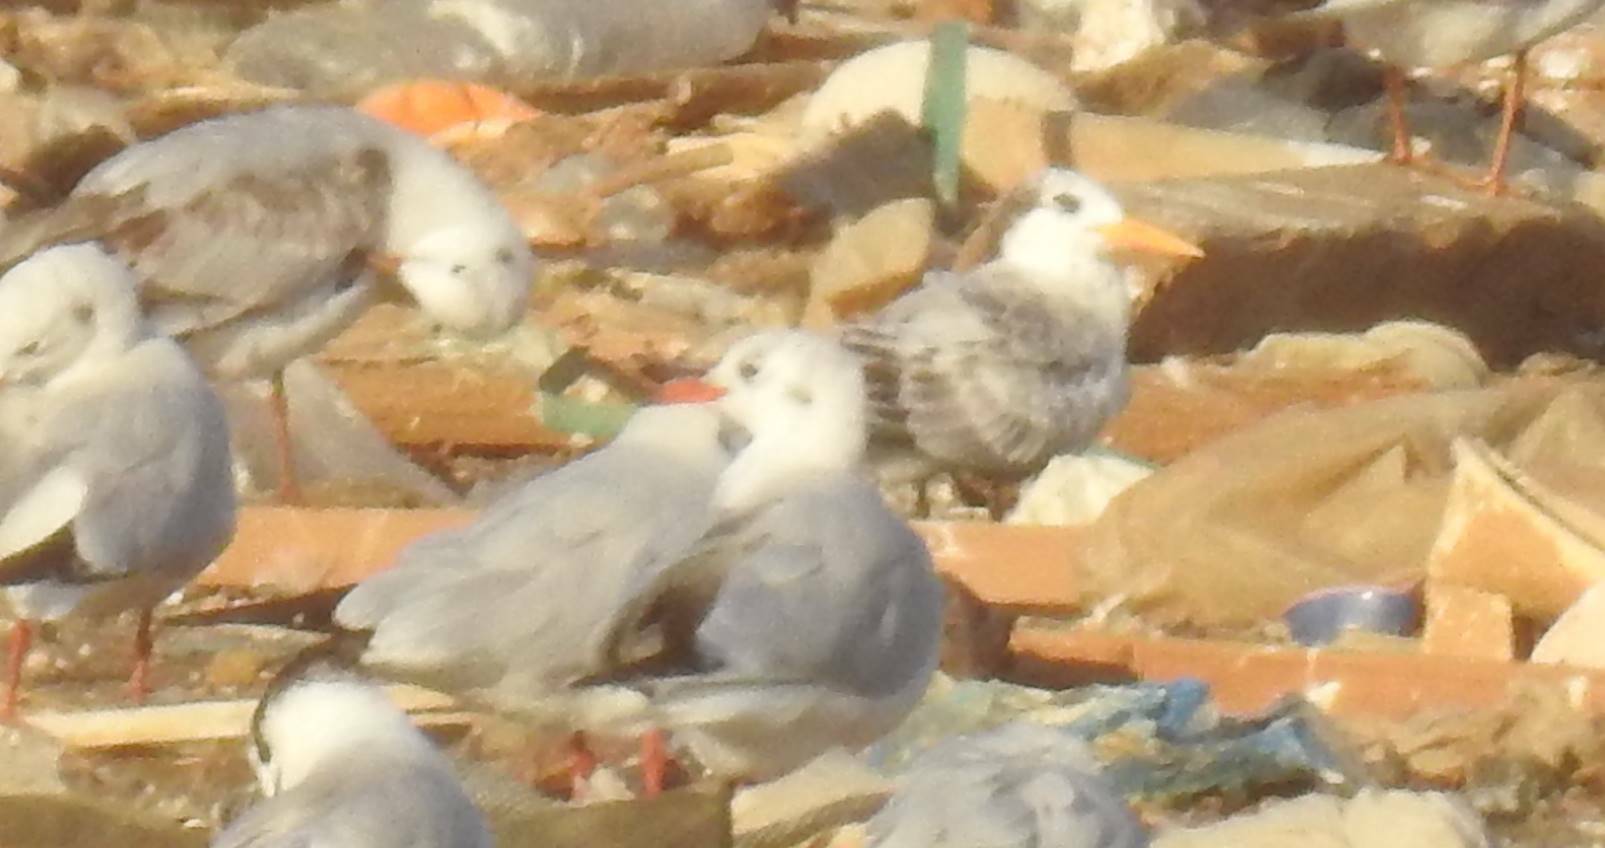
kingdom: Animalia
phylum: Chordata
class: Aves
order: Charadriiformes
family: Laridae
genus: Thalasseus
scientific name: Thalasseus bengalensis
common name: Lesser crested tern
